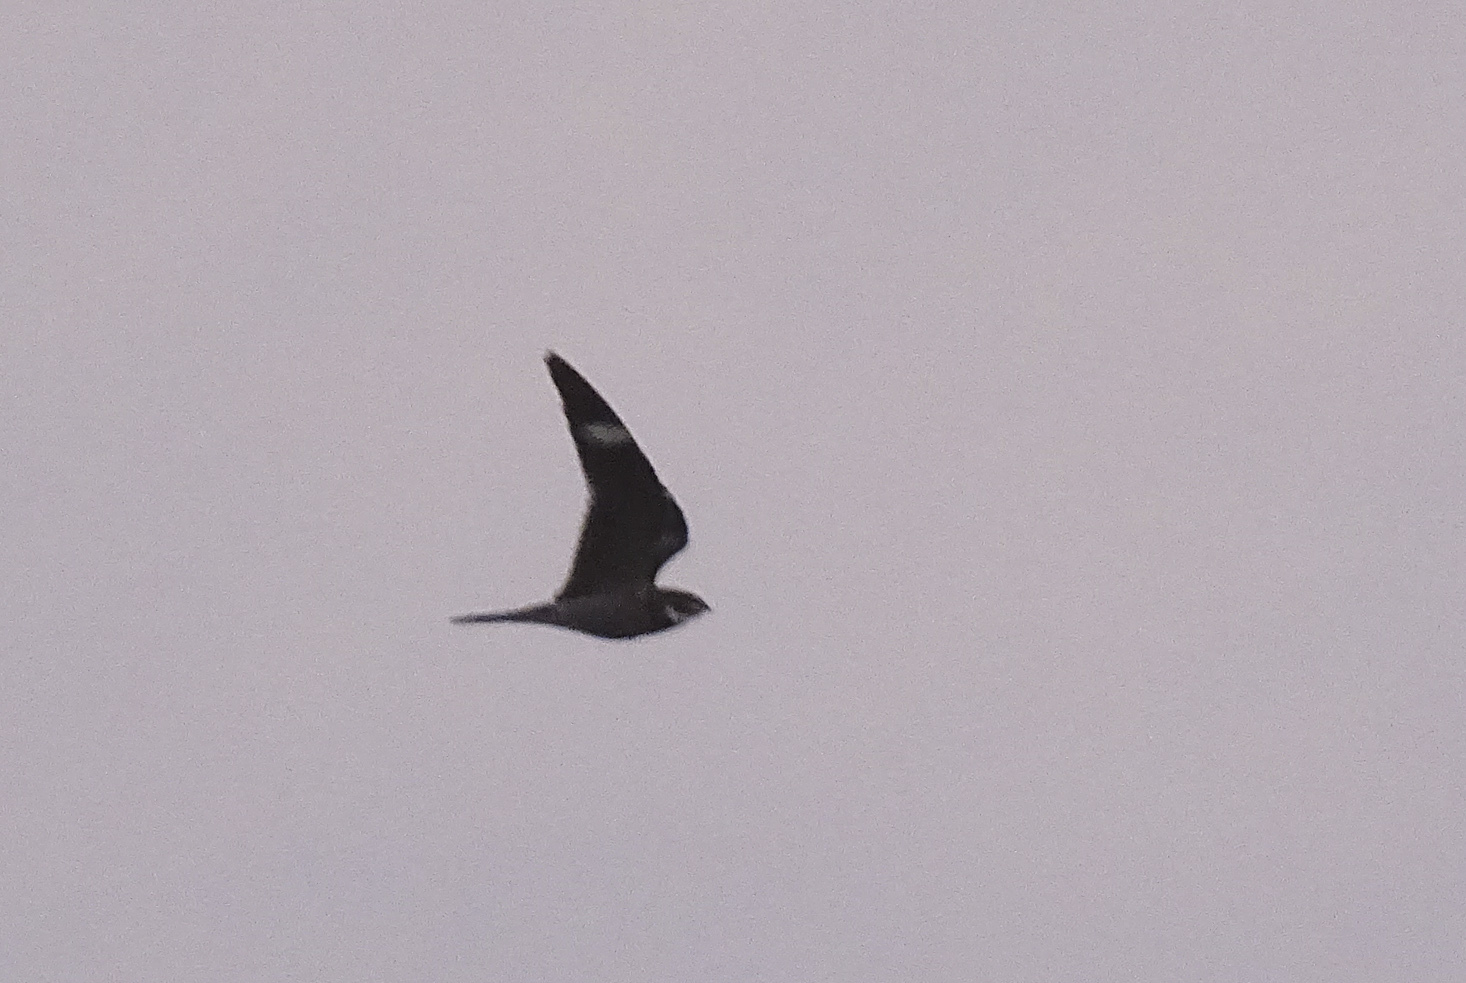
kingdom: Animalia
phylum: Chordata
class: Aves
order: Caprimulgiformes
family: Caprimulgidae
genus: Chordeiles
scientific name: Chordeiles minor
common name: Common nighthawk
